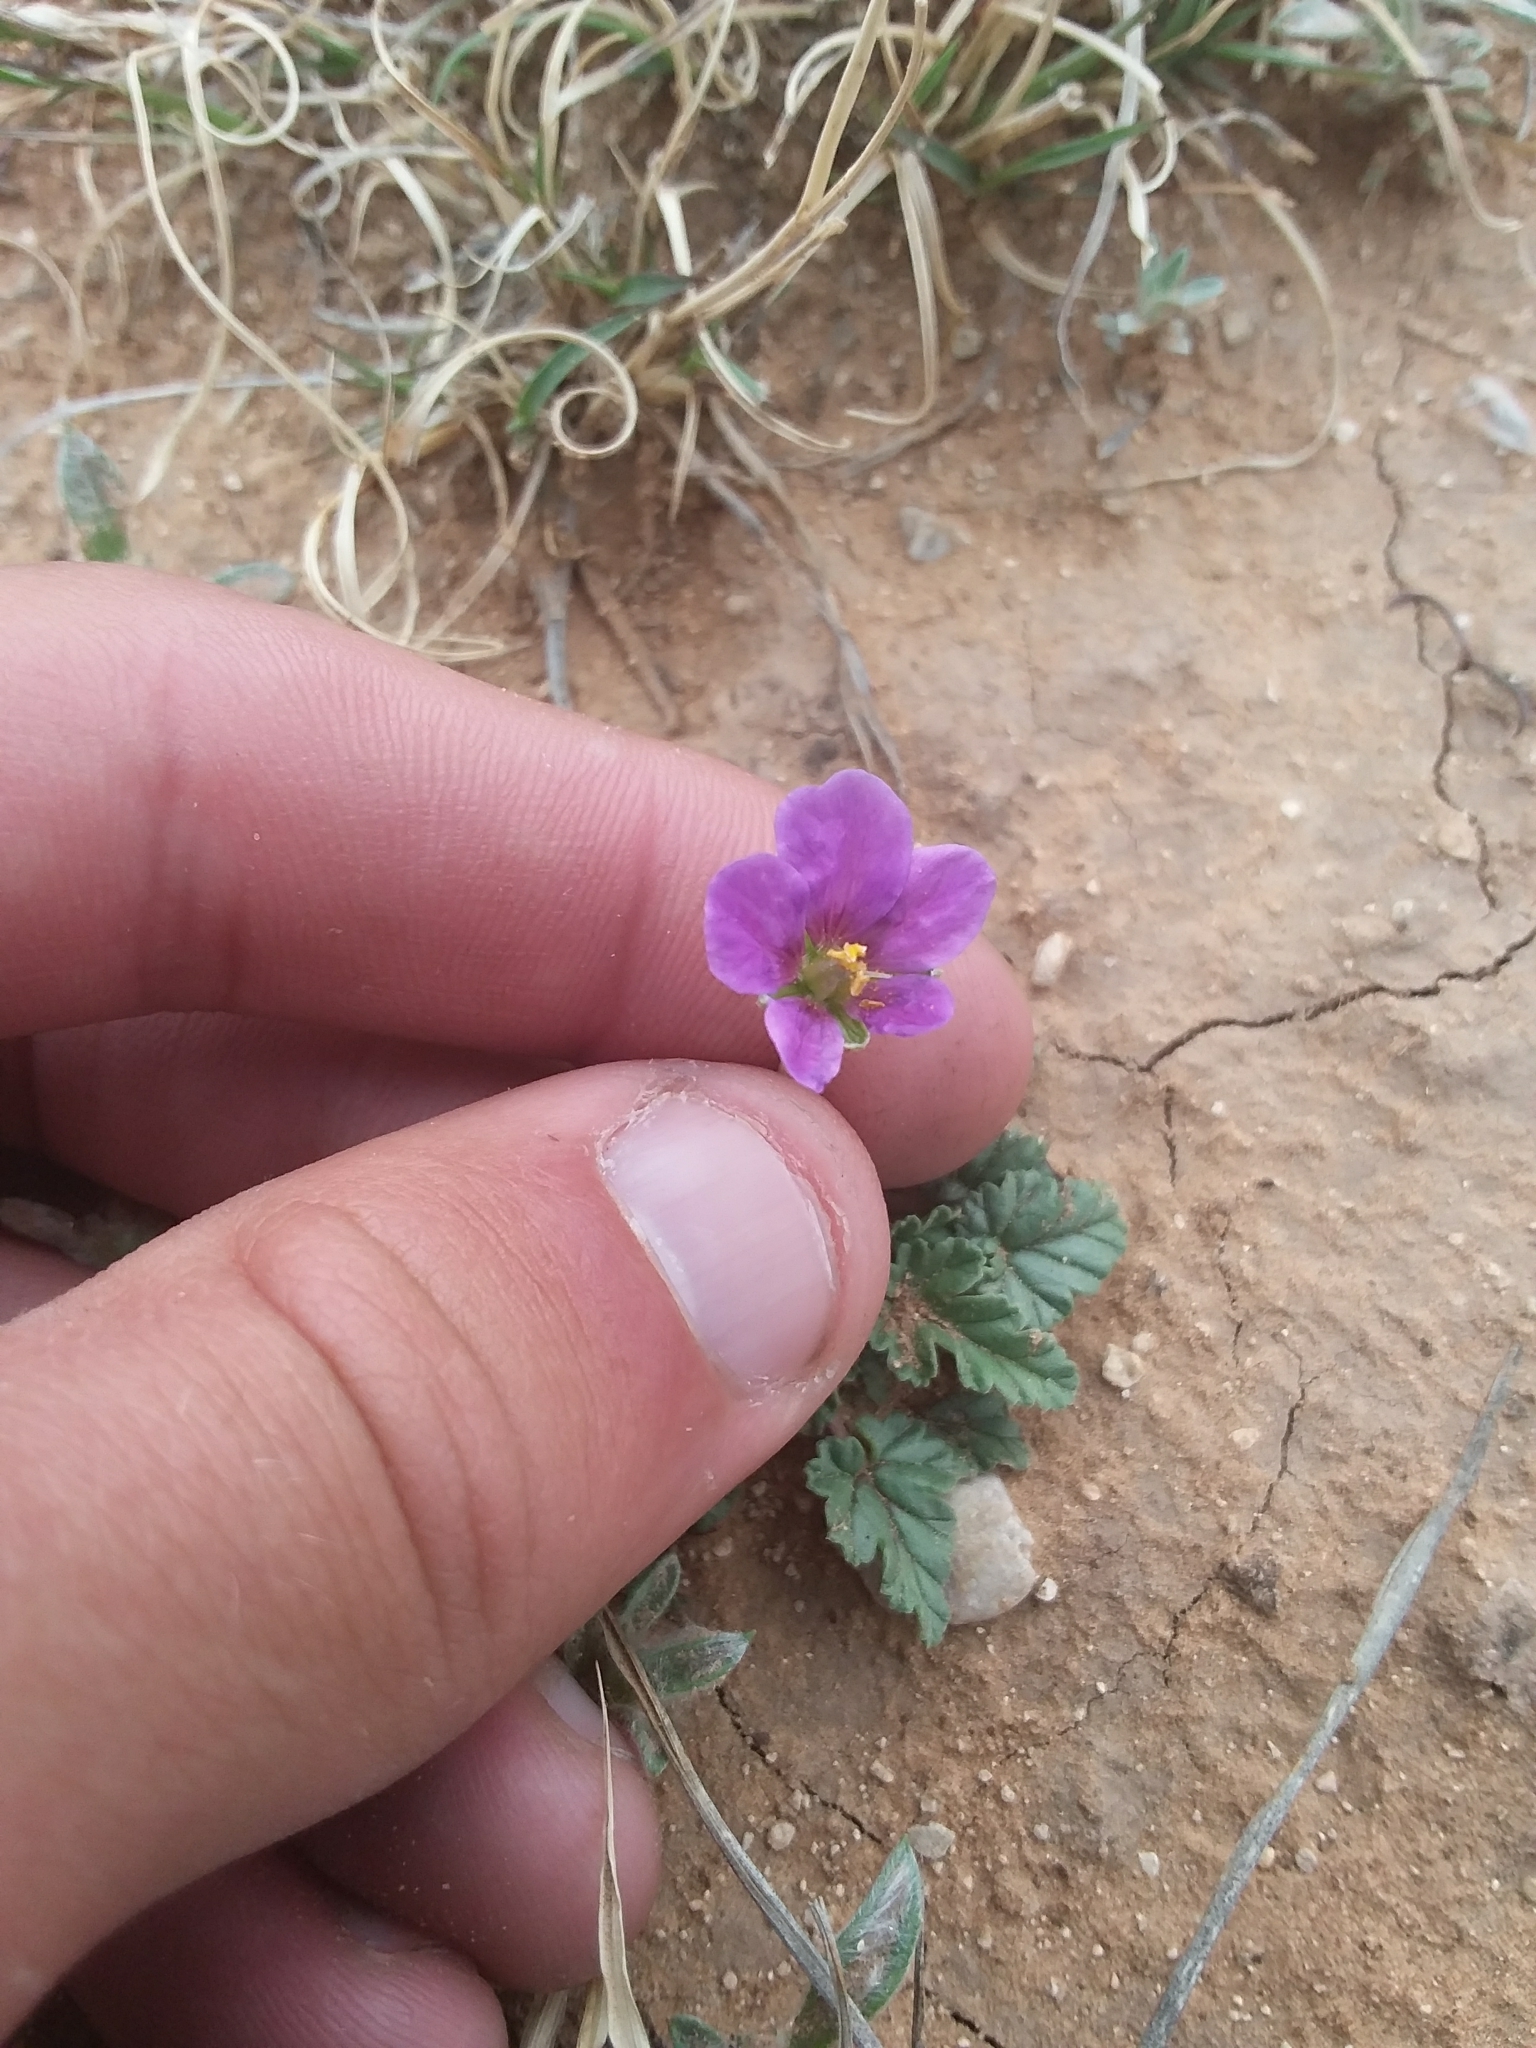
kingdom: Plantae
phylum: Tracheophyta
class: Magnoliopsida
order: Geraniales
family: Geraniaceae
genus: Erodium
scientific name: Erodium texanum
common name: Texas stork's-bill
